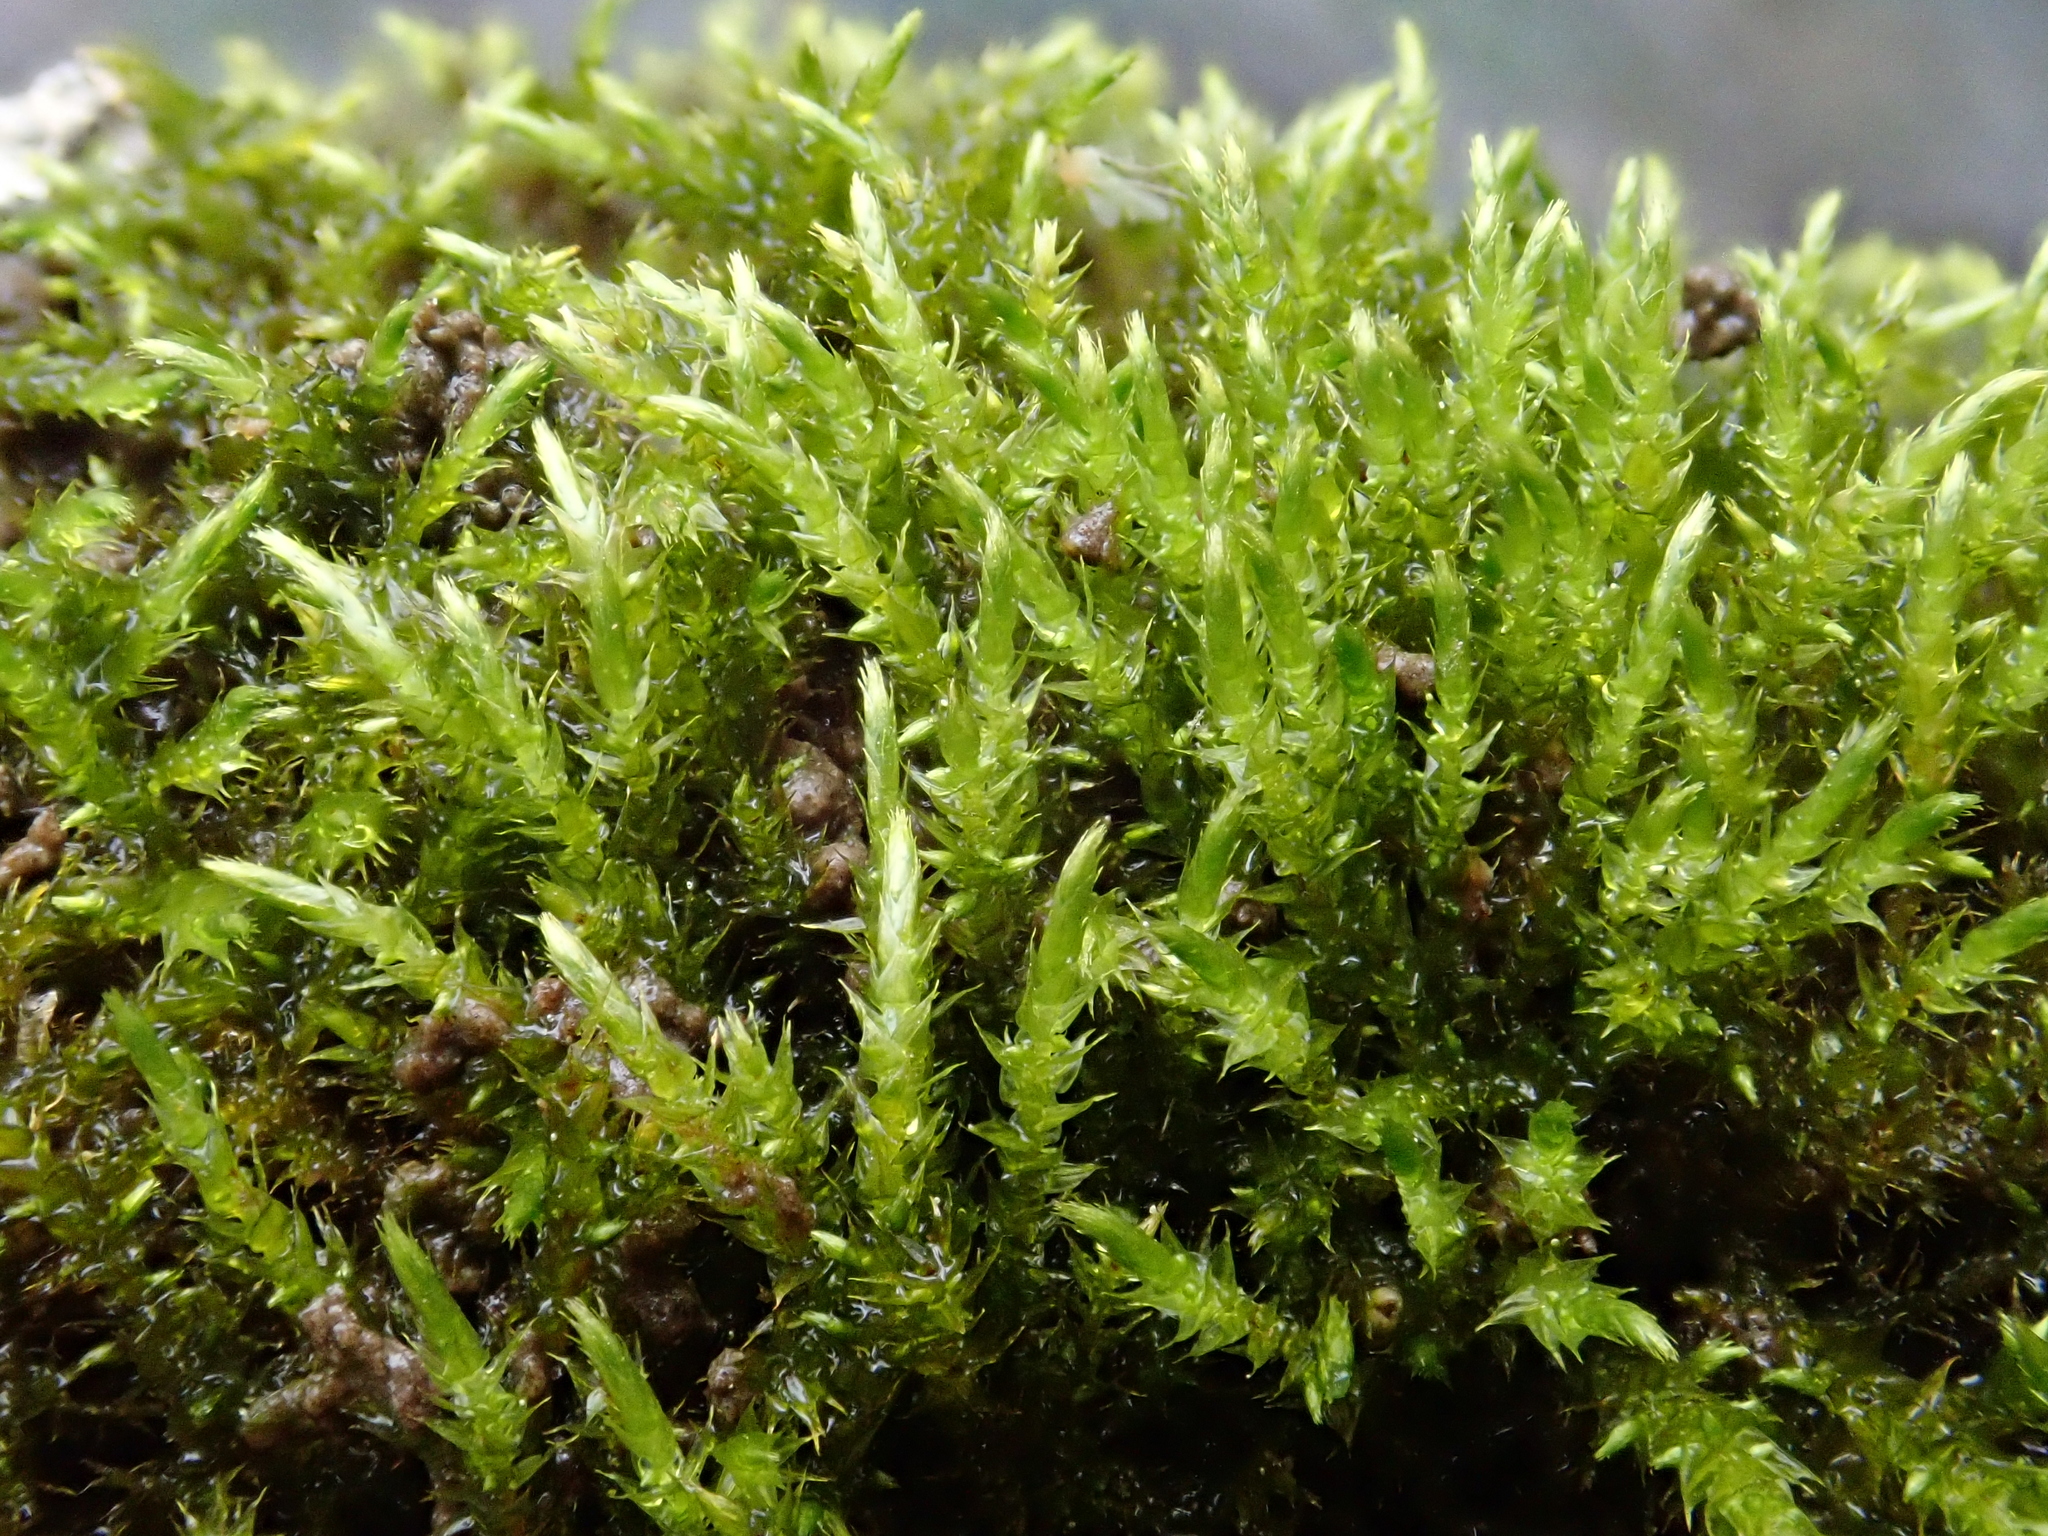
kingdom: Plantae
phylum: Bryophyta
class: Bryopsida
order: Hypnales
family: Amblystegiaceae
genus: Cratoneuron
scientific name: Cratoneuron filicinum
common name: Fern-leaved hook moss
